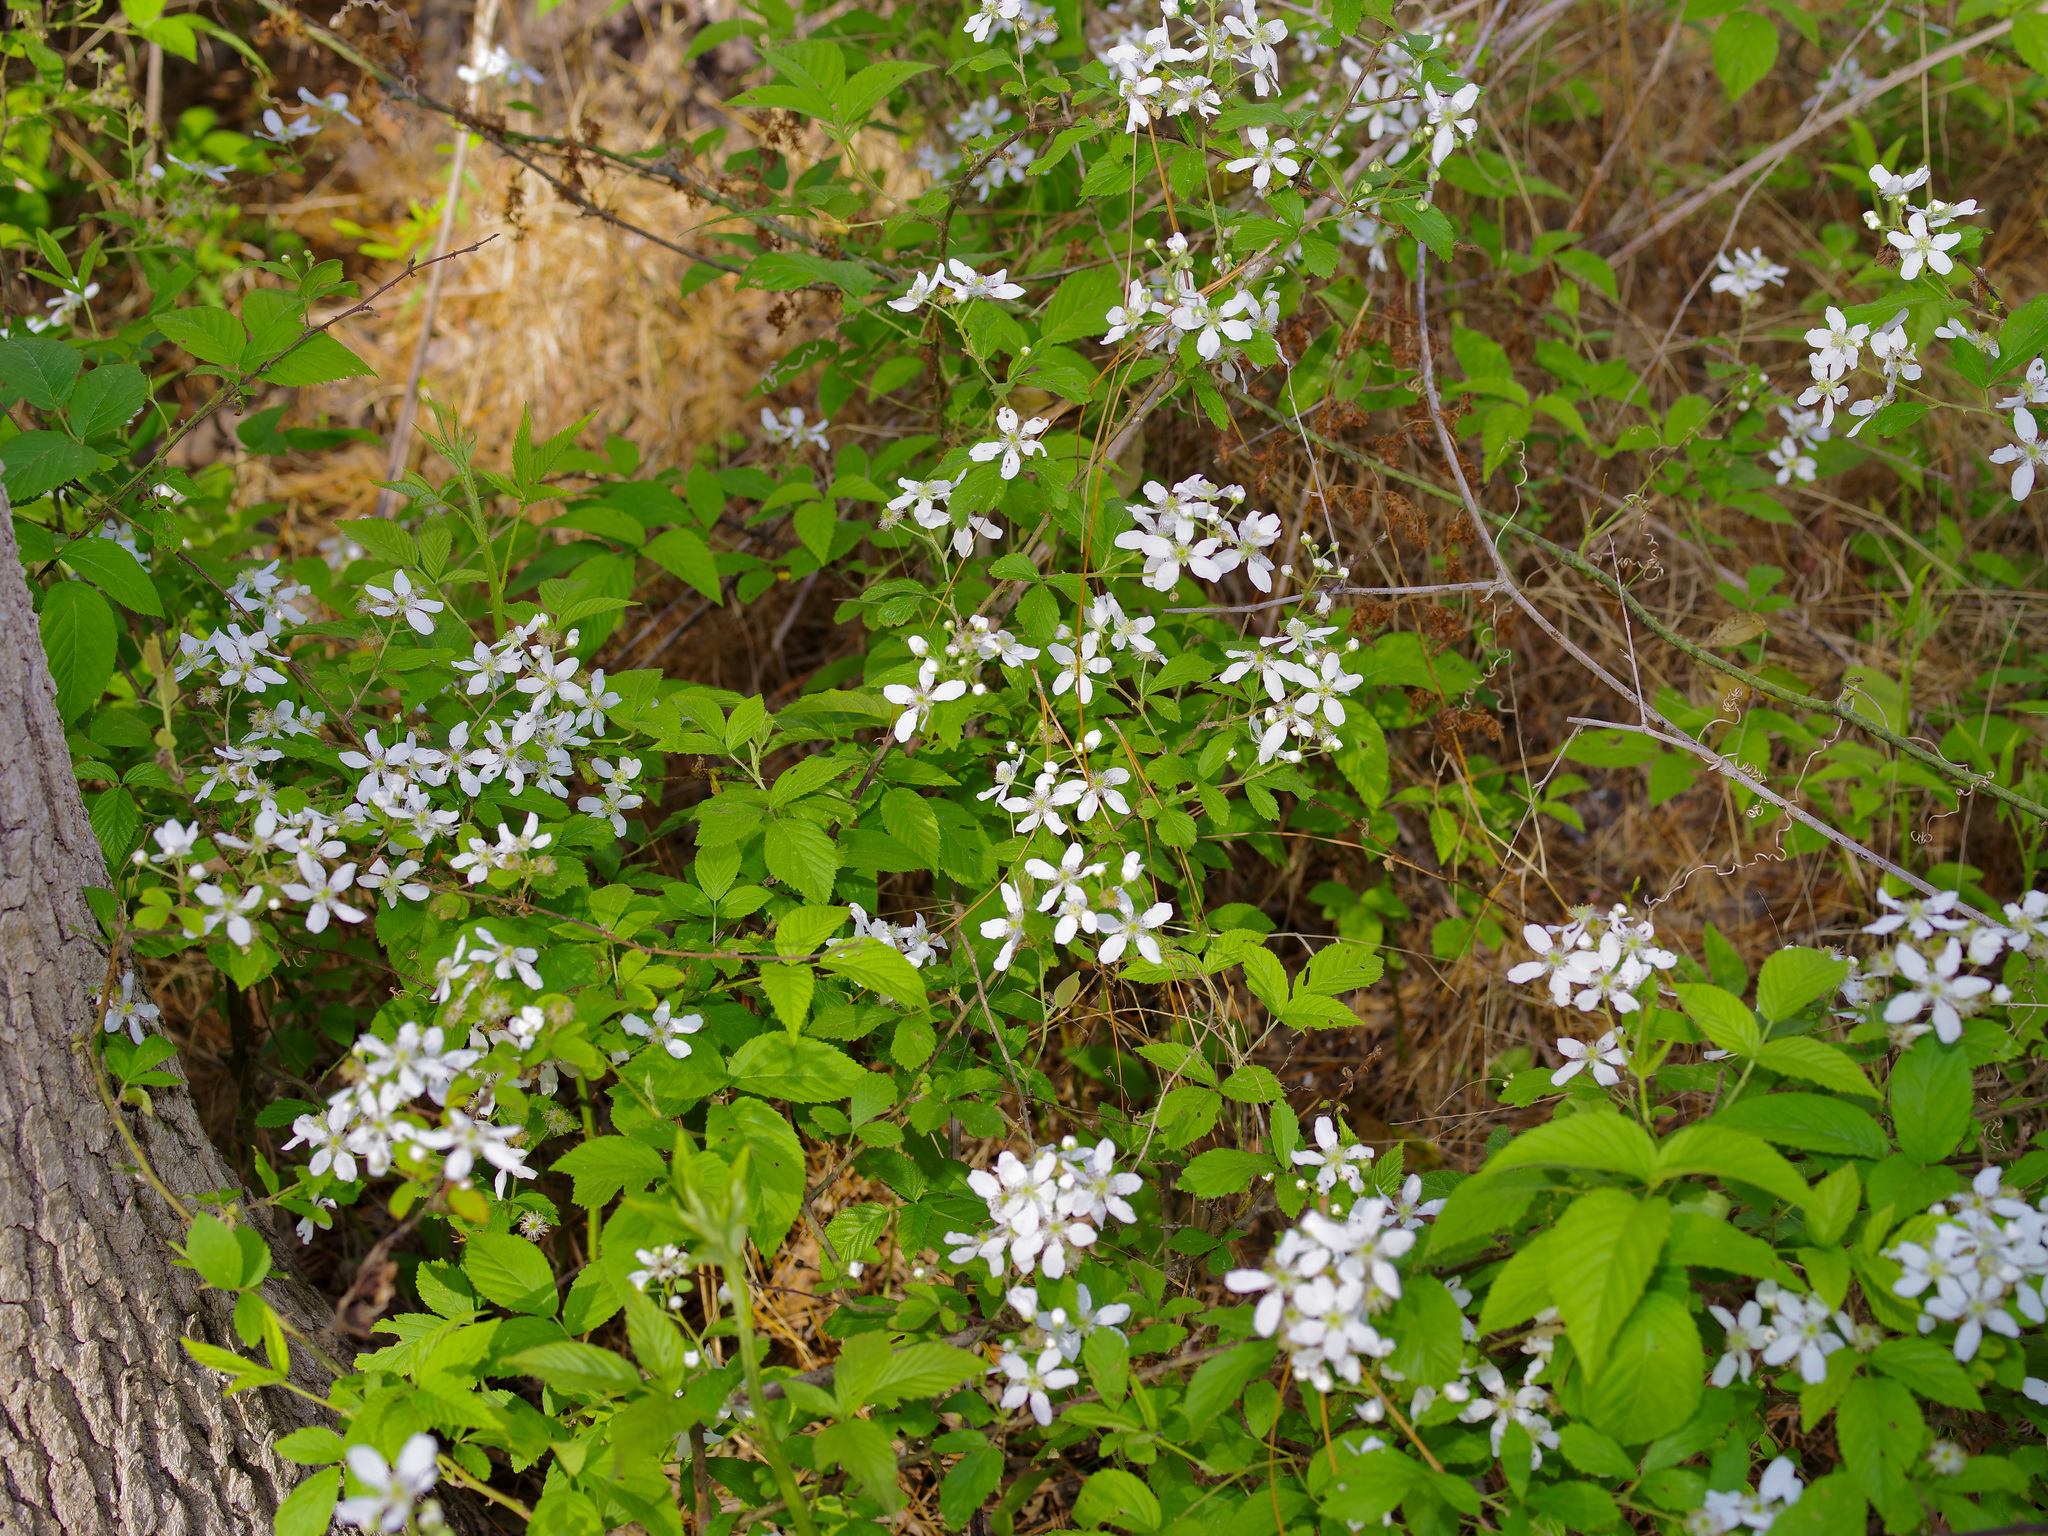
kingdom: Plantae
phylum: Tracheophyta
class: Magnoliopsida
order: Rosales
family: Rosaceae
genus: Rubus
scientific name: Rubus pensilvanicus
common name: Pennsylvania blackberry
